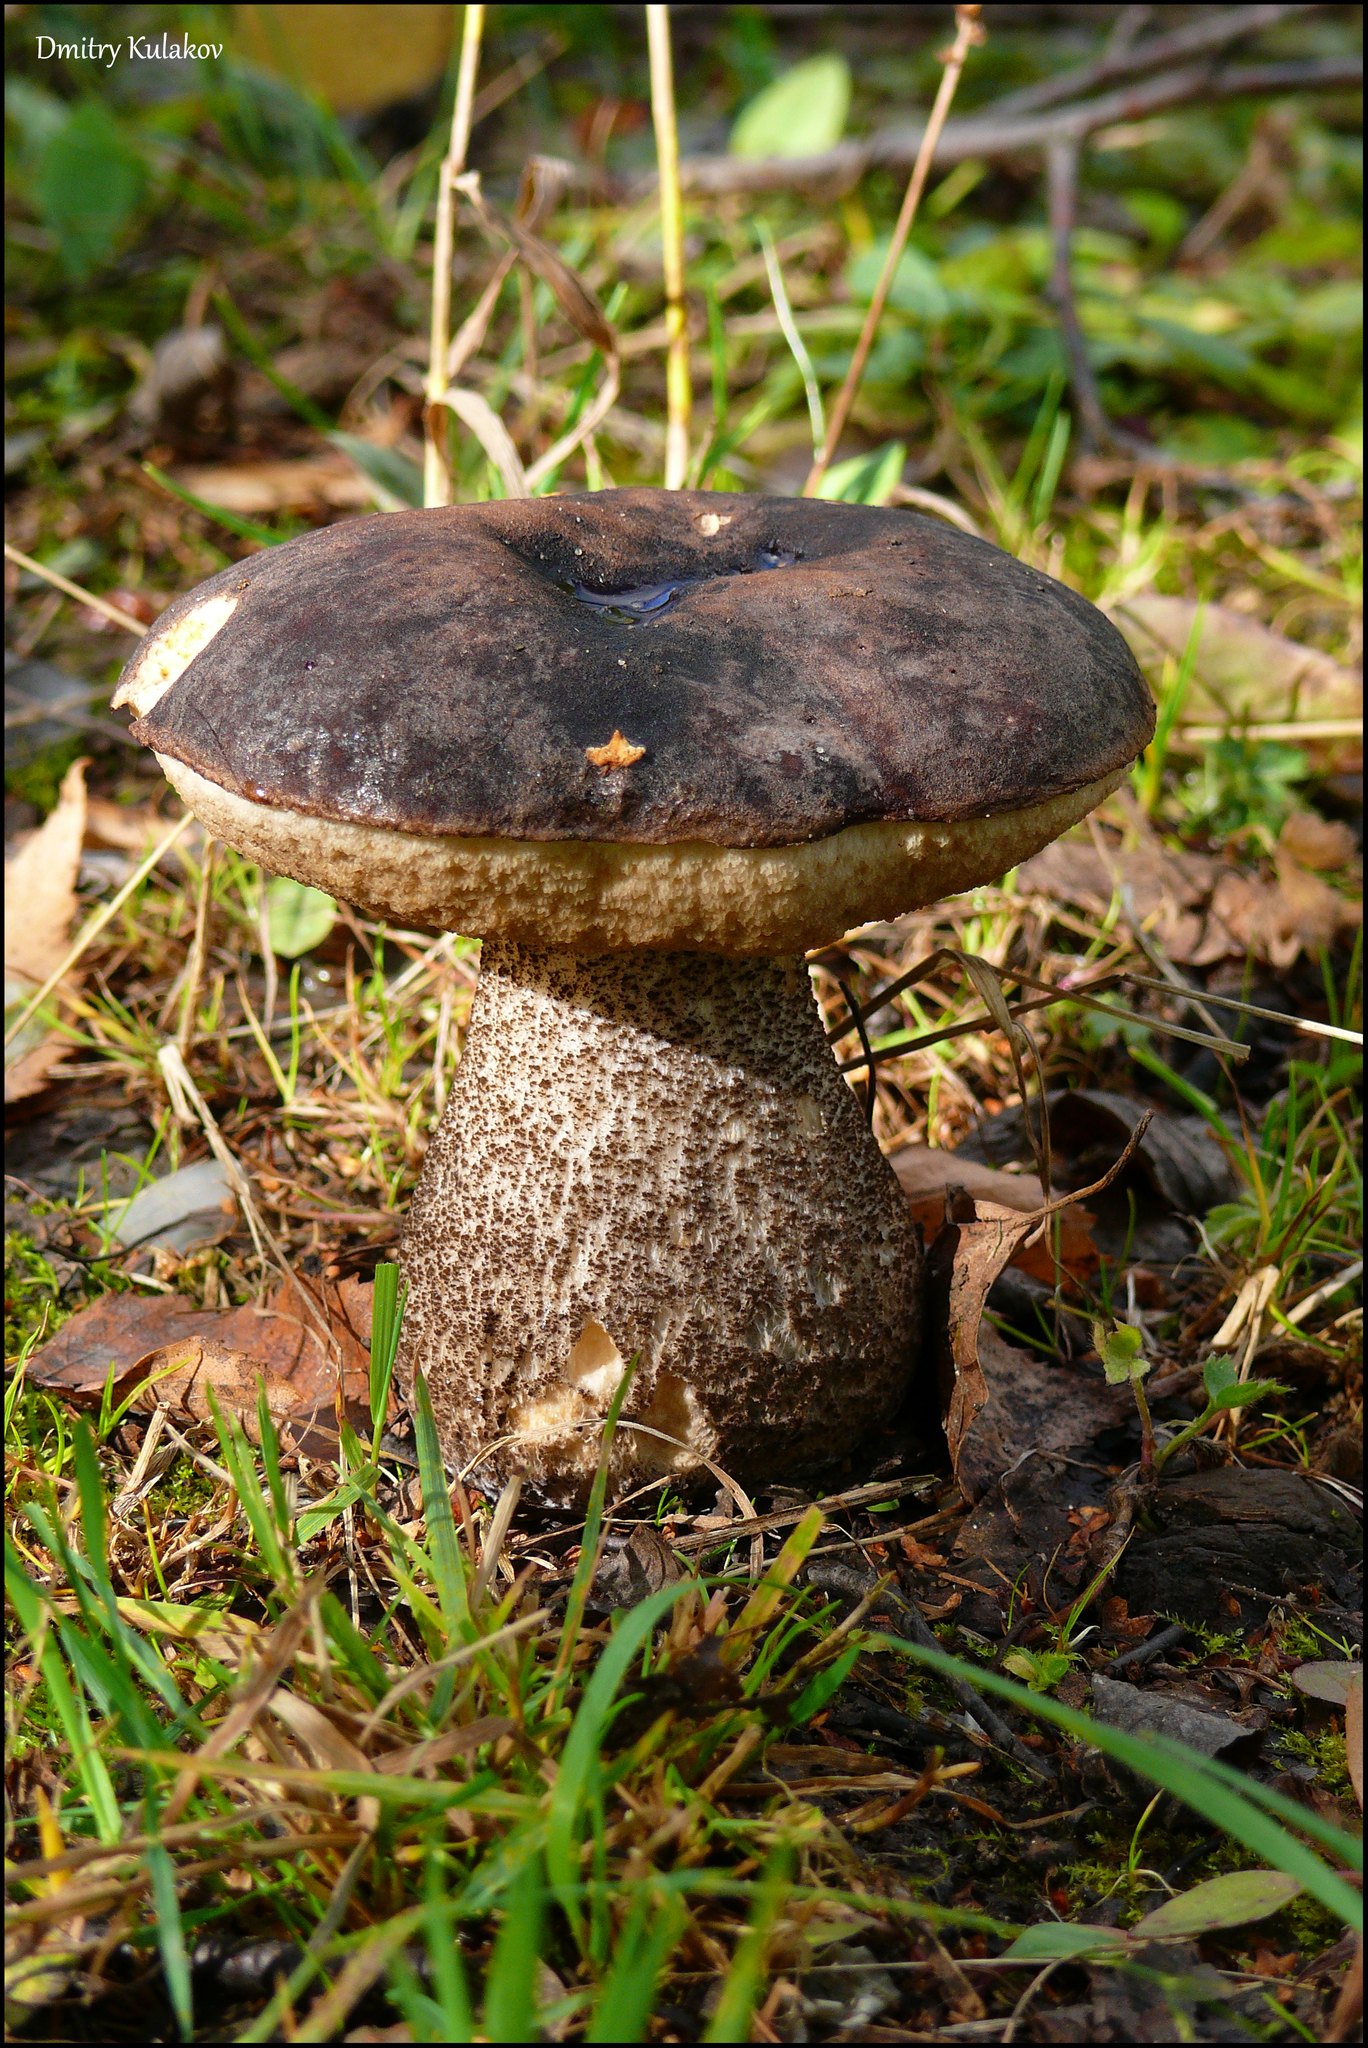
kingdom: Fungi
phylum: Basidiomycota
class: Agaricomycetes
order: Boletales
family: Boletaceae
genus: Leccinum
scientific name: Leccinum melaneum
